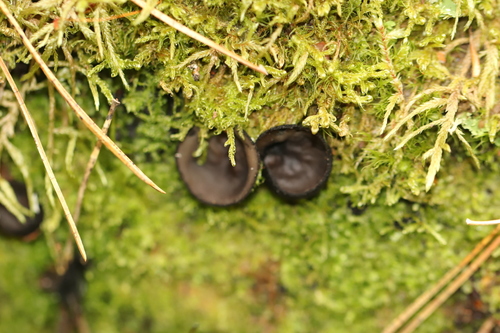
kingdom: Fungi
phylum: Ascomycota
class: Pezizomycetes
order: Pezizales
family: Sarcosomataceae
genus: Pseudoplectania
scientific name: Pseudoplectania nigrella
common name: Ebony cup
